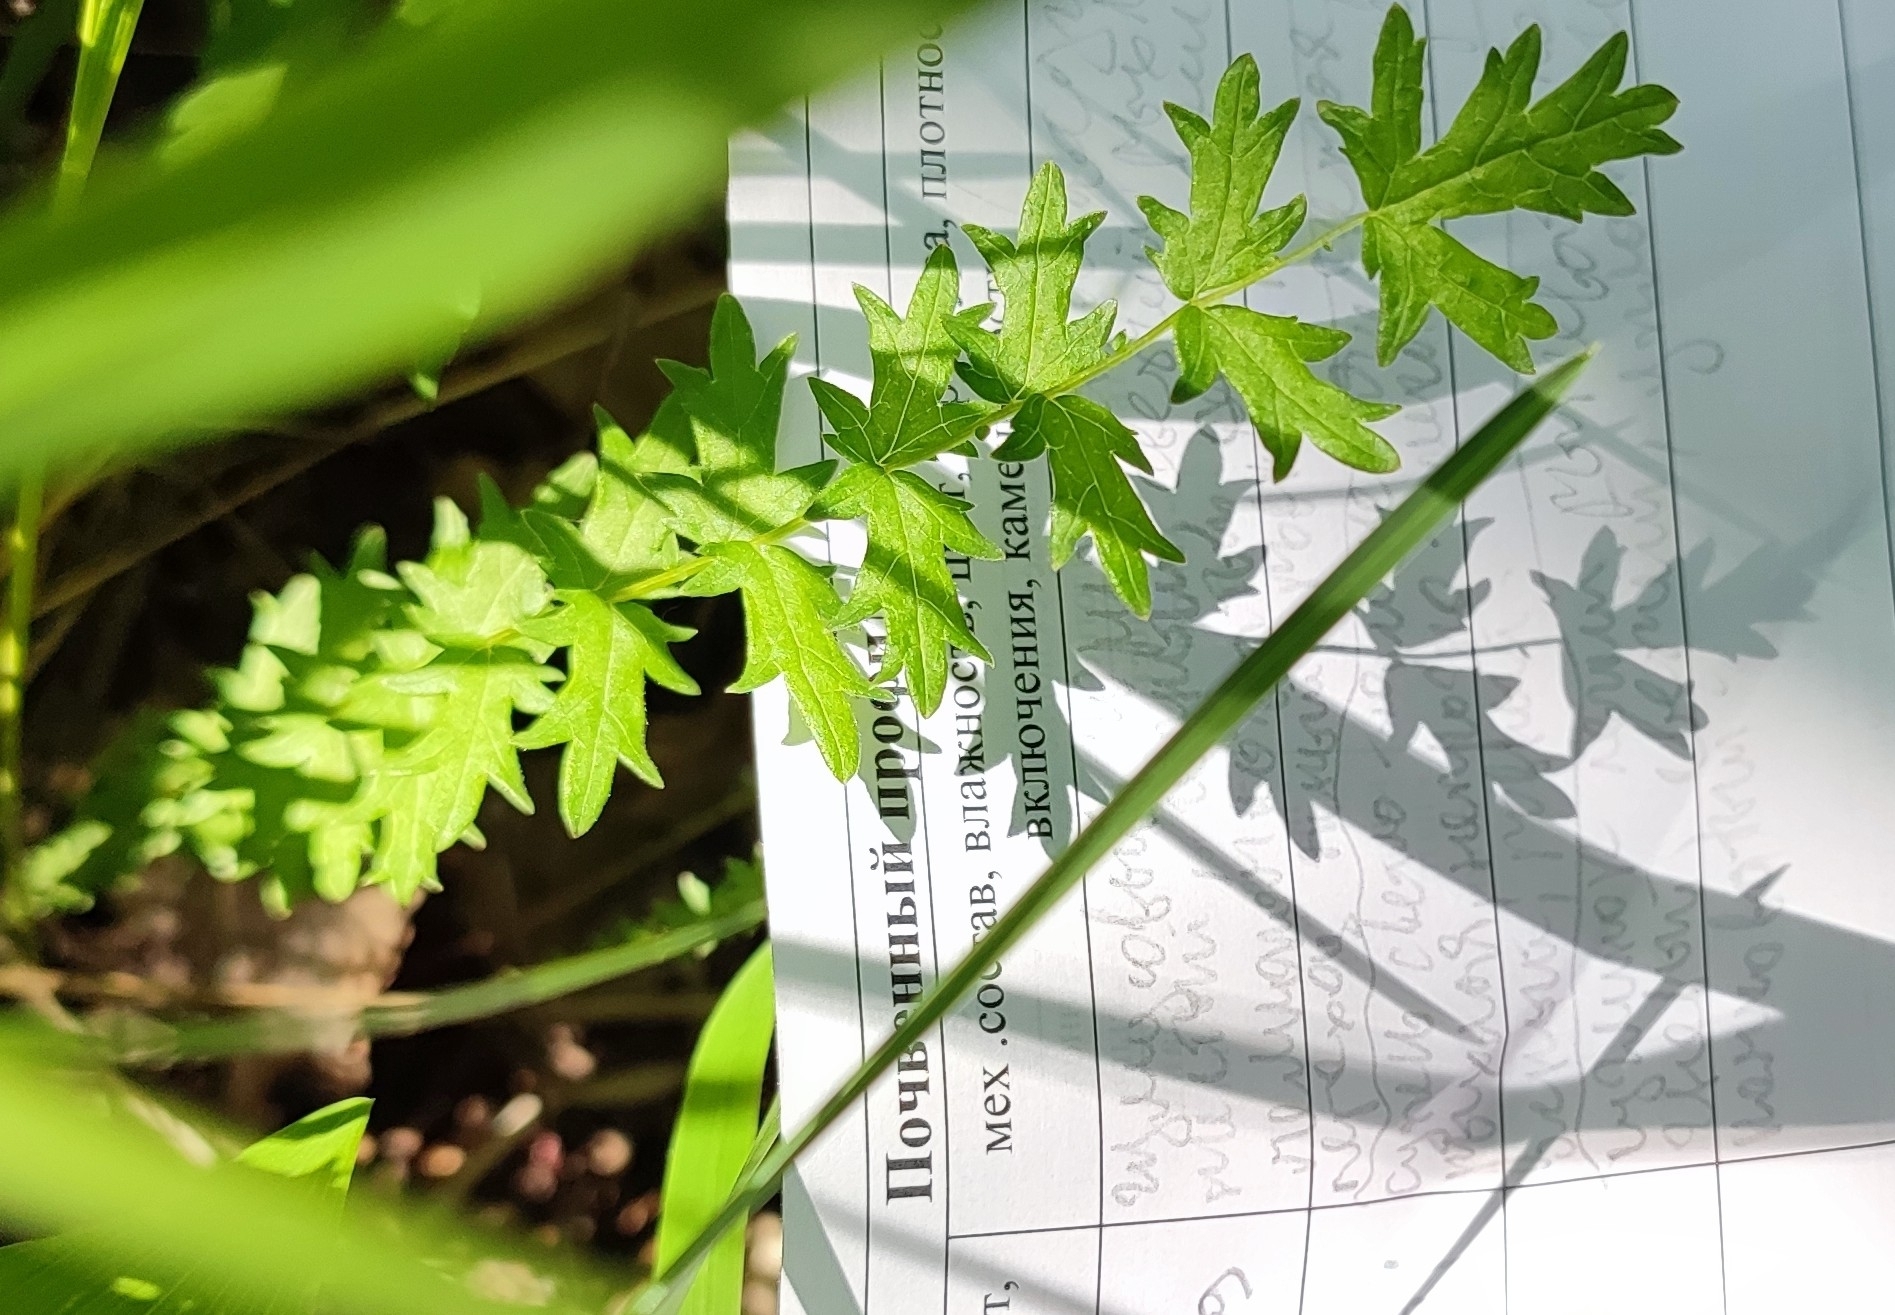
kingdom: Plantae
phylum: Tracheophyta
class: Magnoliopsida
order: Rosales
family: Rosaceae
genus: Filipendula
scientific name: Filipendula vulgaris
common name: Dropwort
